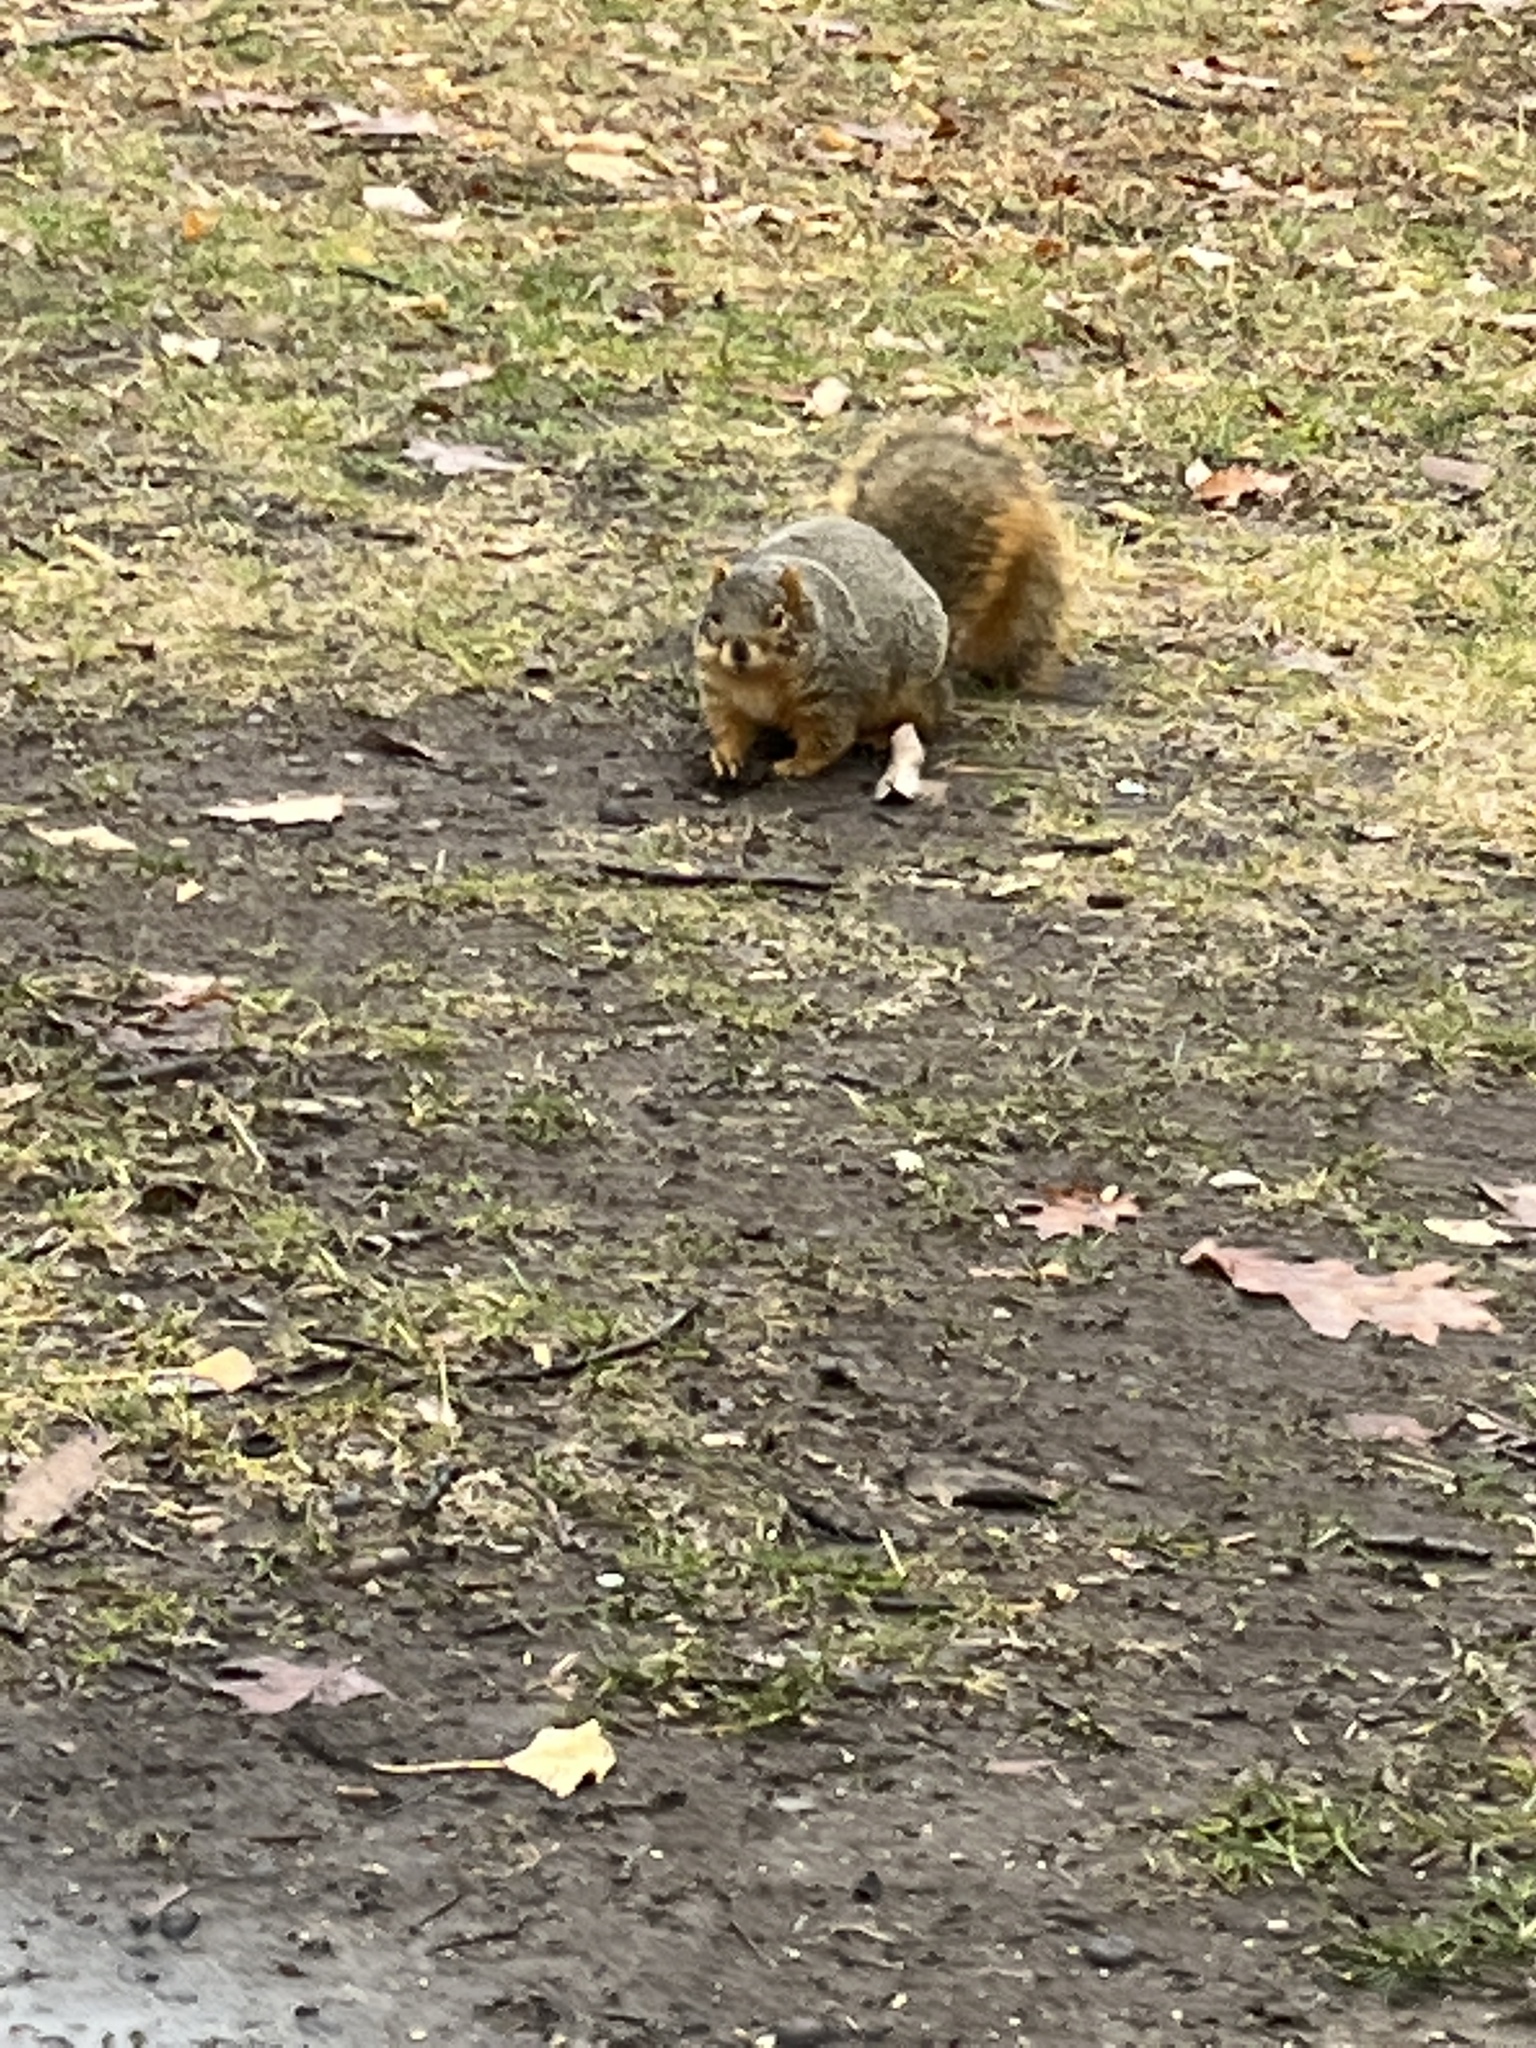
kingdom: Animalia
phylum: Chordata
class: Mammalia
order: Rodentia
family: Sciuridae
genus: Sciurus
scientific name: Sciurus niger
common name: Fox squirrel
